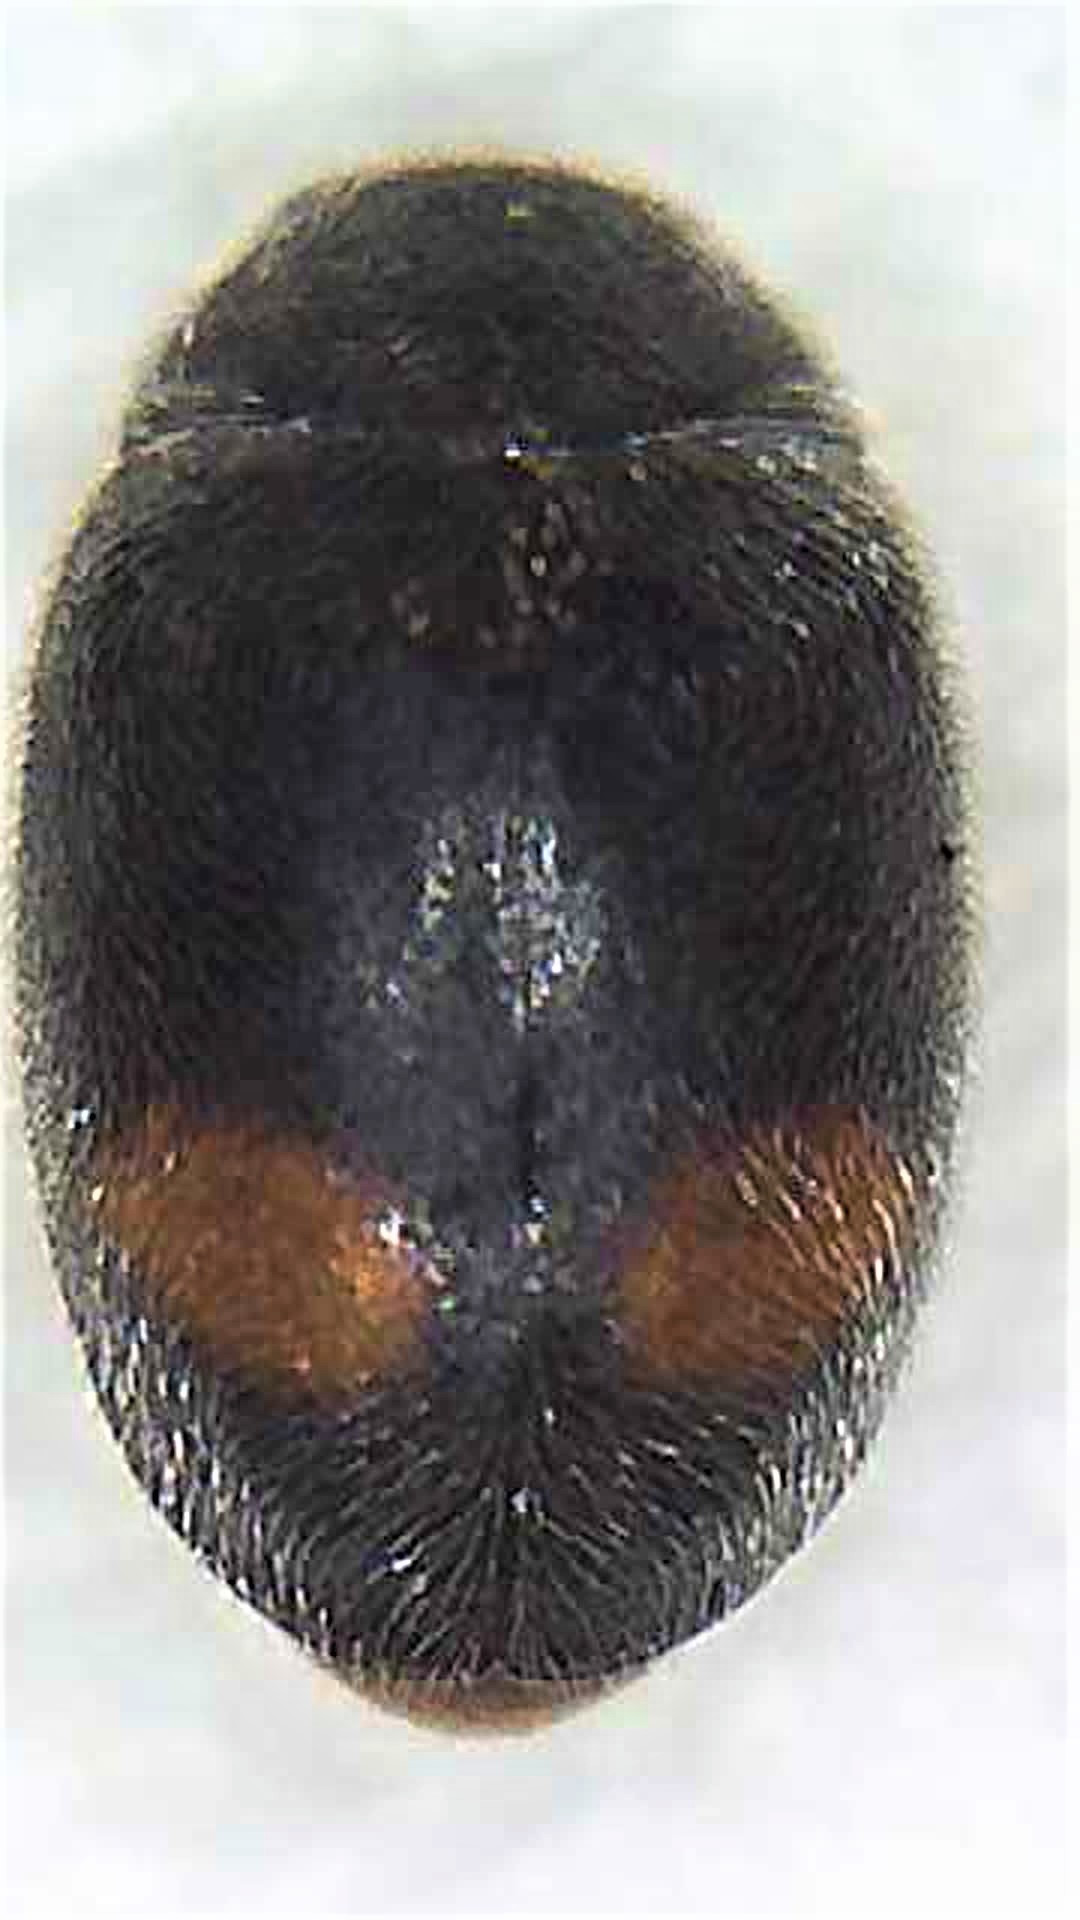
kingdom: Animalia
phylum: Arthropoda
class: Insecta
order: Coleoptera
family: Coccinellidae
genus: Nephus
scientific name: Nephus binaevatus
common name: Ladybird beetle
